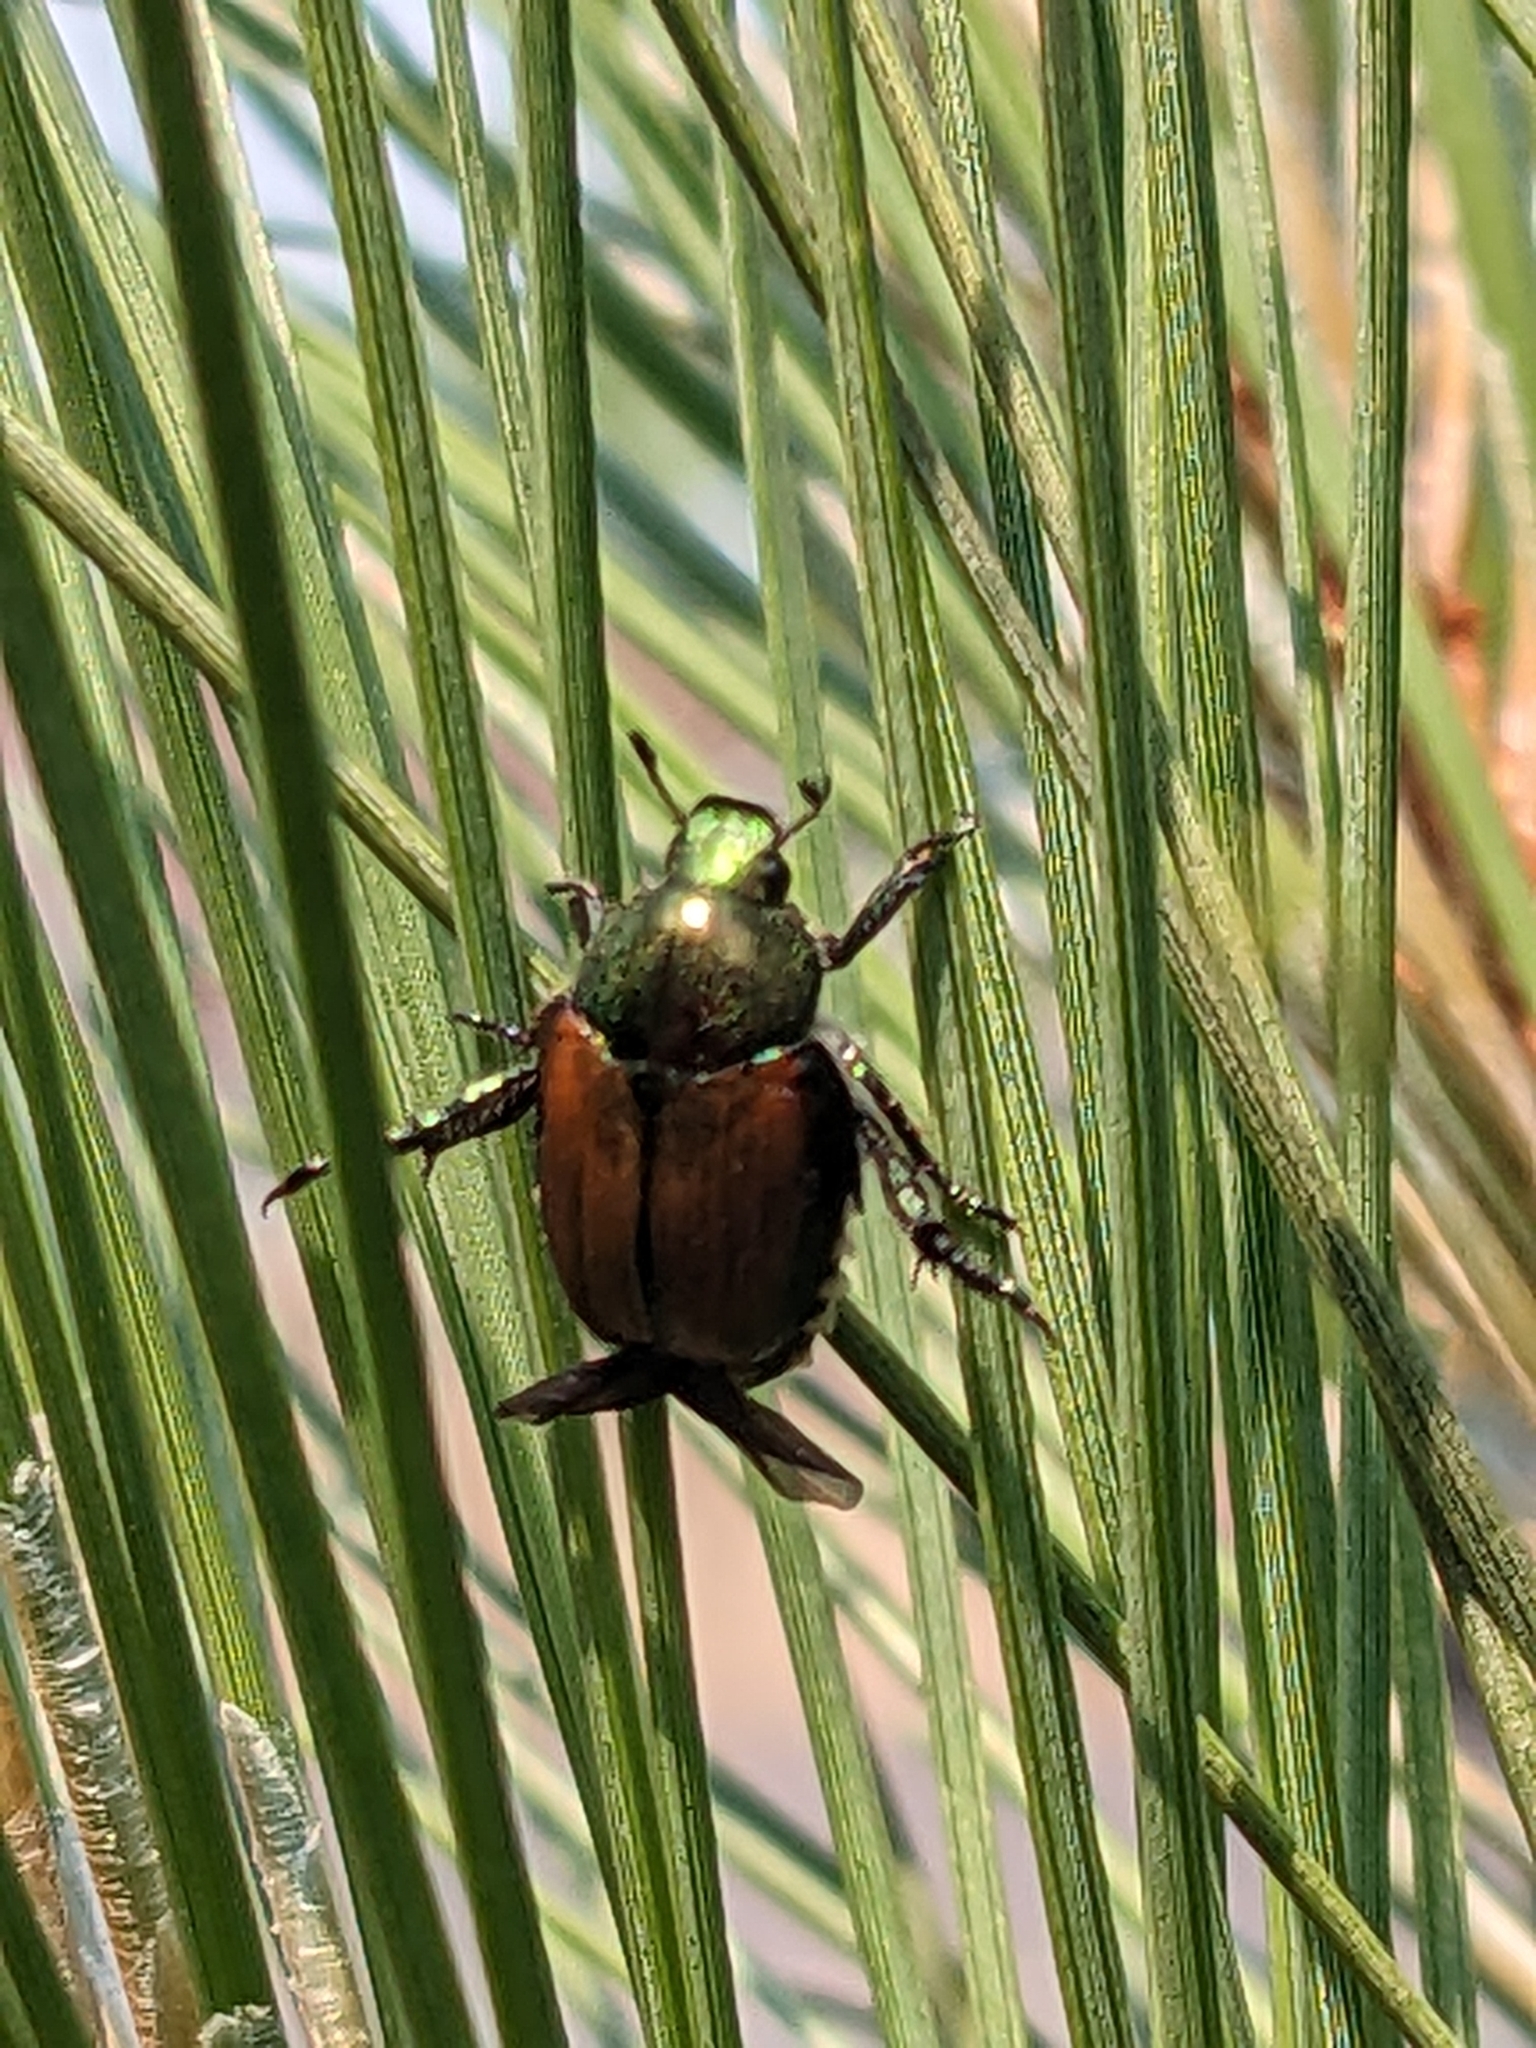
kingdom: Animalia
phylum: Arthropoda
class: Insecta
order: Coleoptera
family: Scarabaeidae
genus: Popillia
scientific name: Popillia japonica
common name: Japanese beetle
